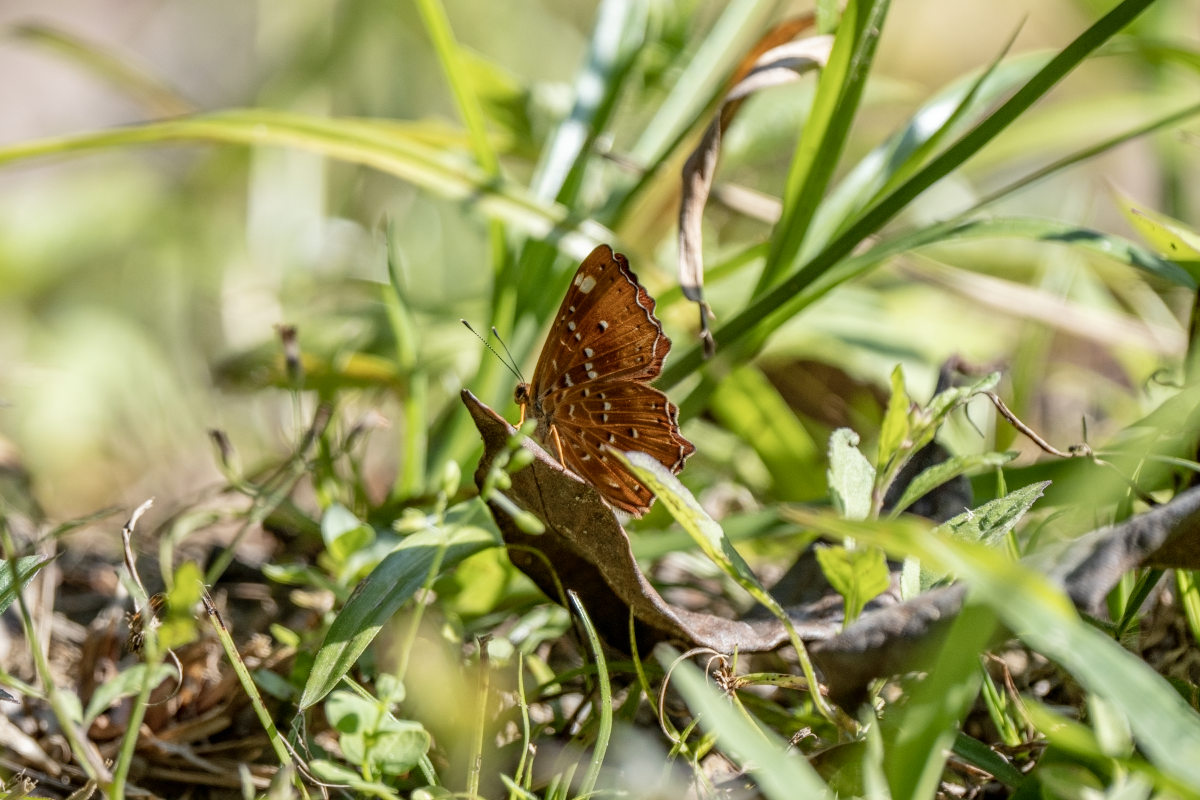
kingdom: Animalia
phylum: Arthropoda
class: Insecta
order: Lepidoptera
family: Riodinidae
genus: Zemeros
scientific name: Zemeros flegyas
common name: Punchinello
